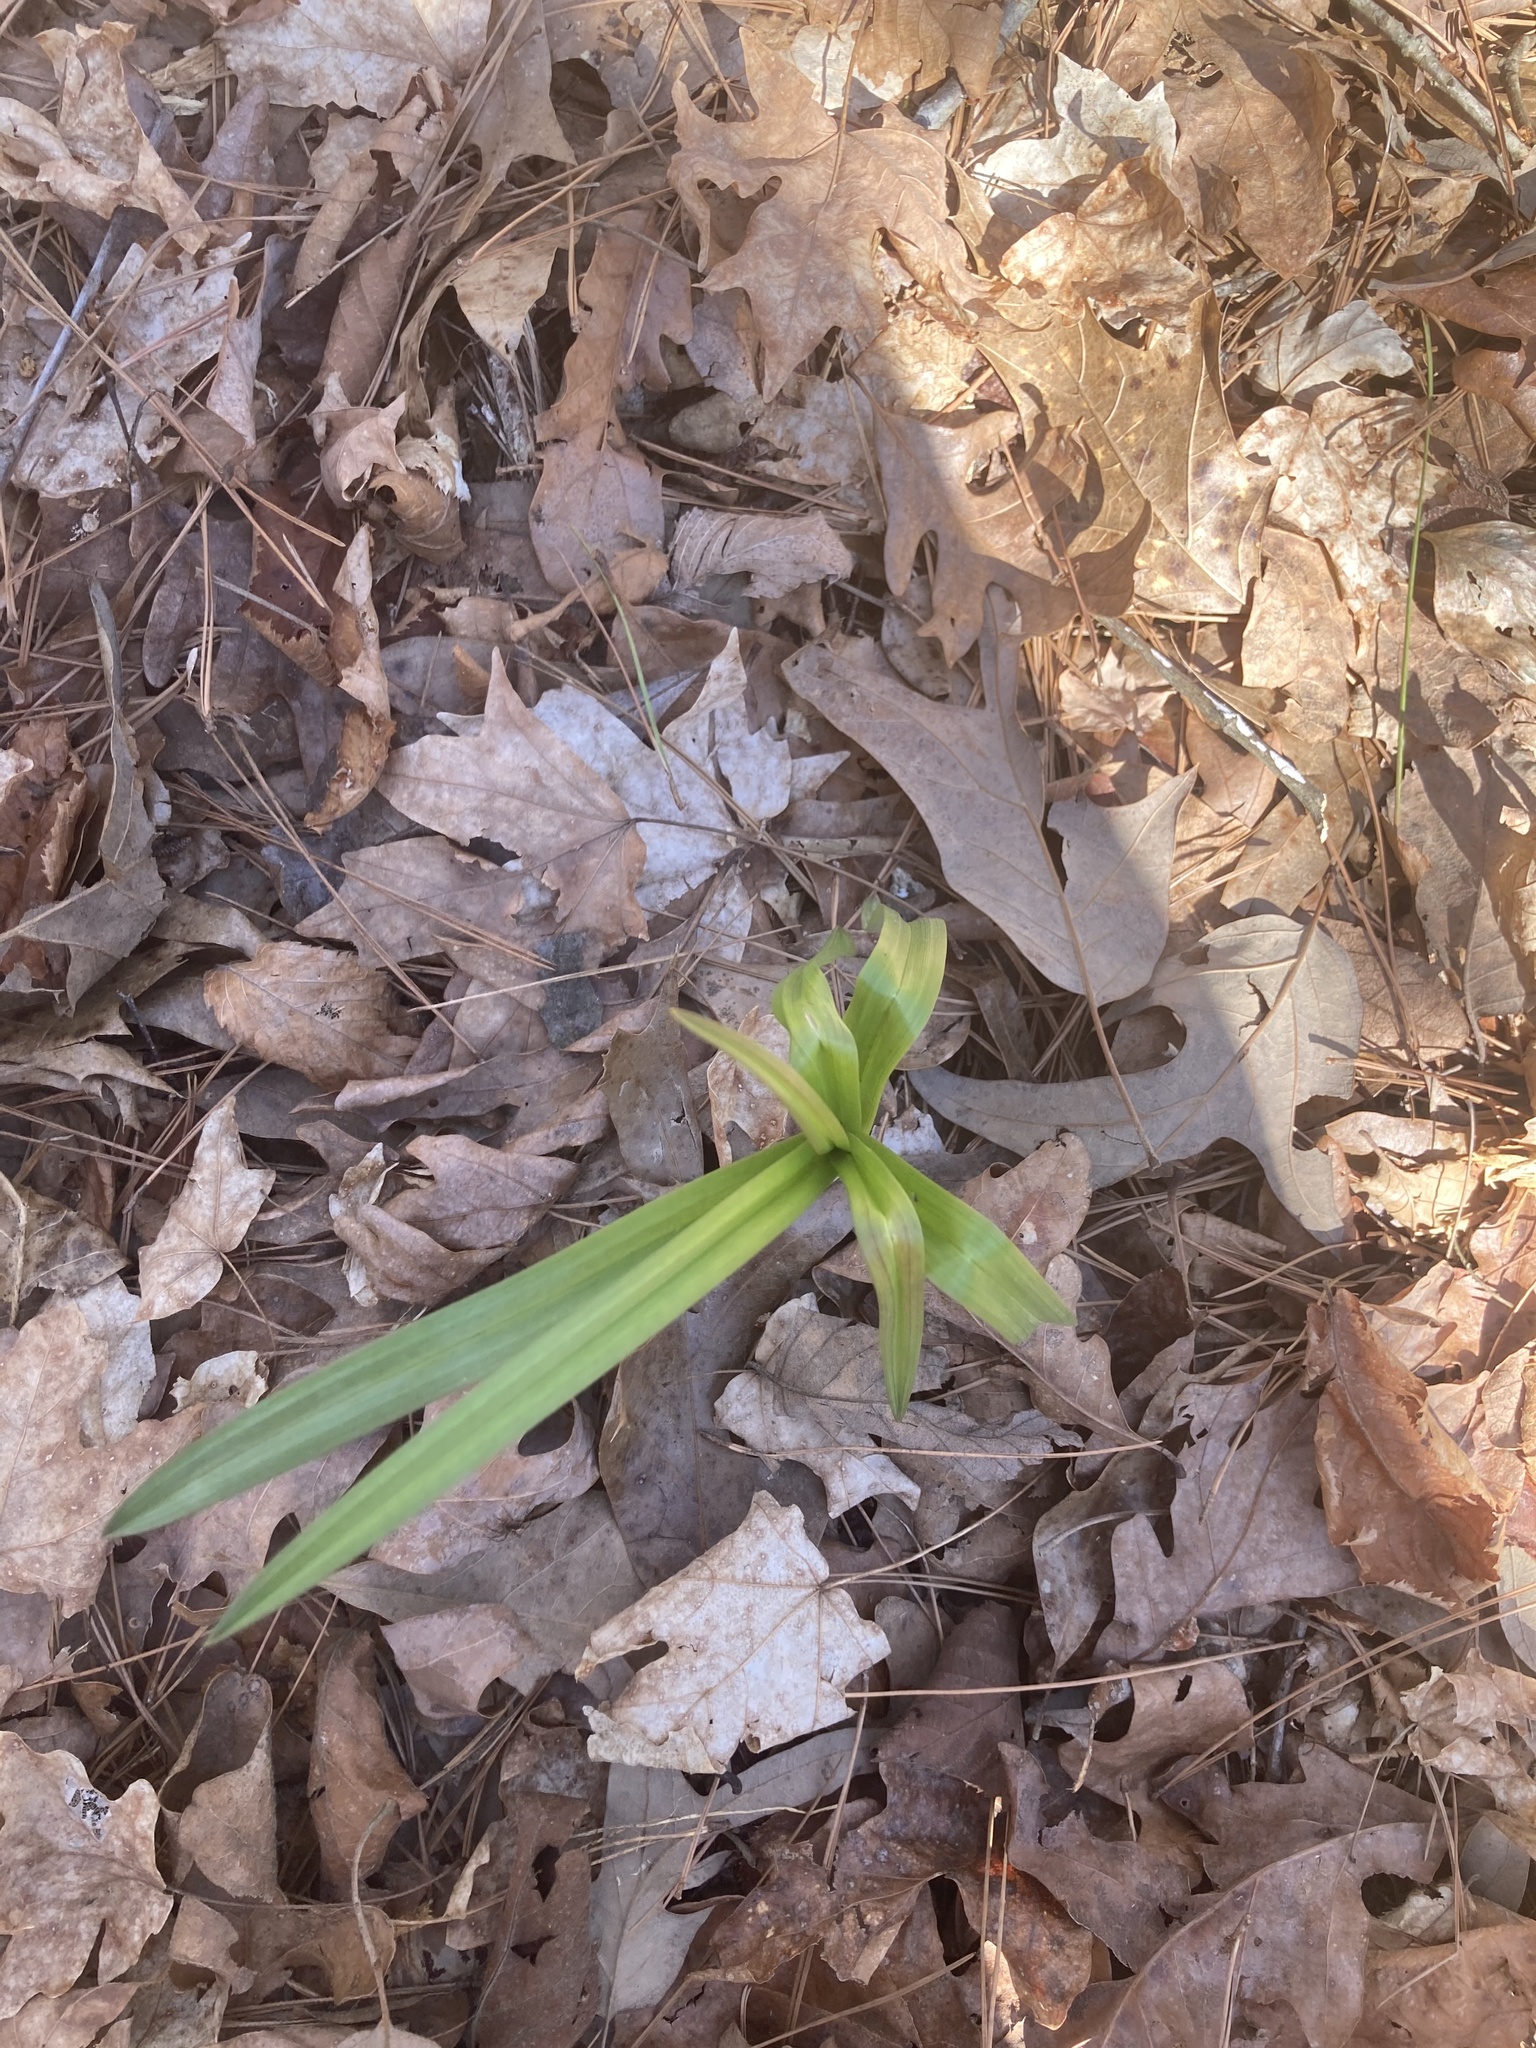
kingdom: Plantae
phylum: Tracheophyta
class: Liliopsida
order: Liliales
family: Melanthiaceae
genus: Stenanthium
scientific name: Stenanthium gramineum
